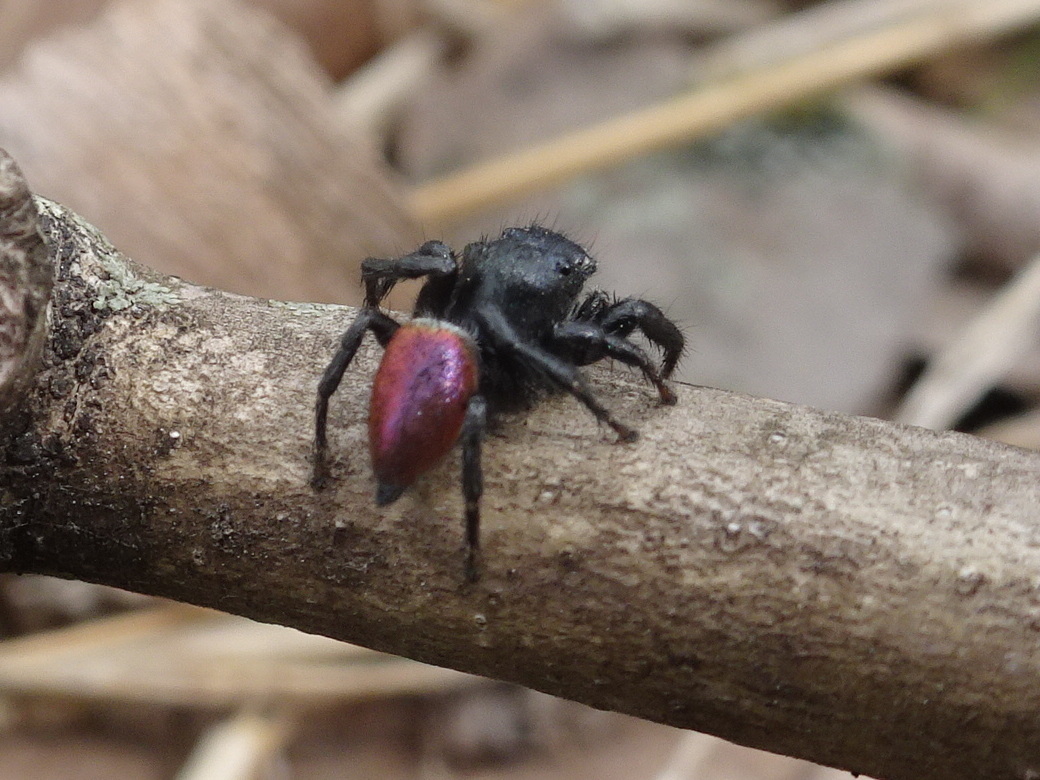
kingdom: Animalia
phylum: Arthropoda
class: Arachnida
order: Araneae
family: Salticidae
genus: Habronattus
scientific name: Habronattus decorus
